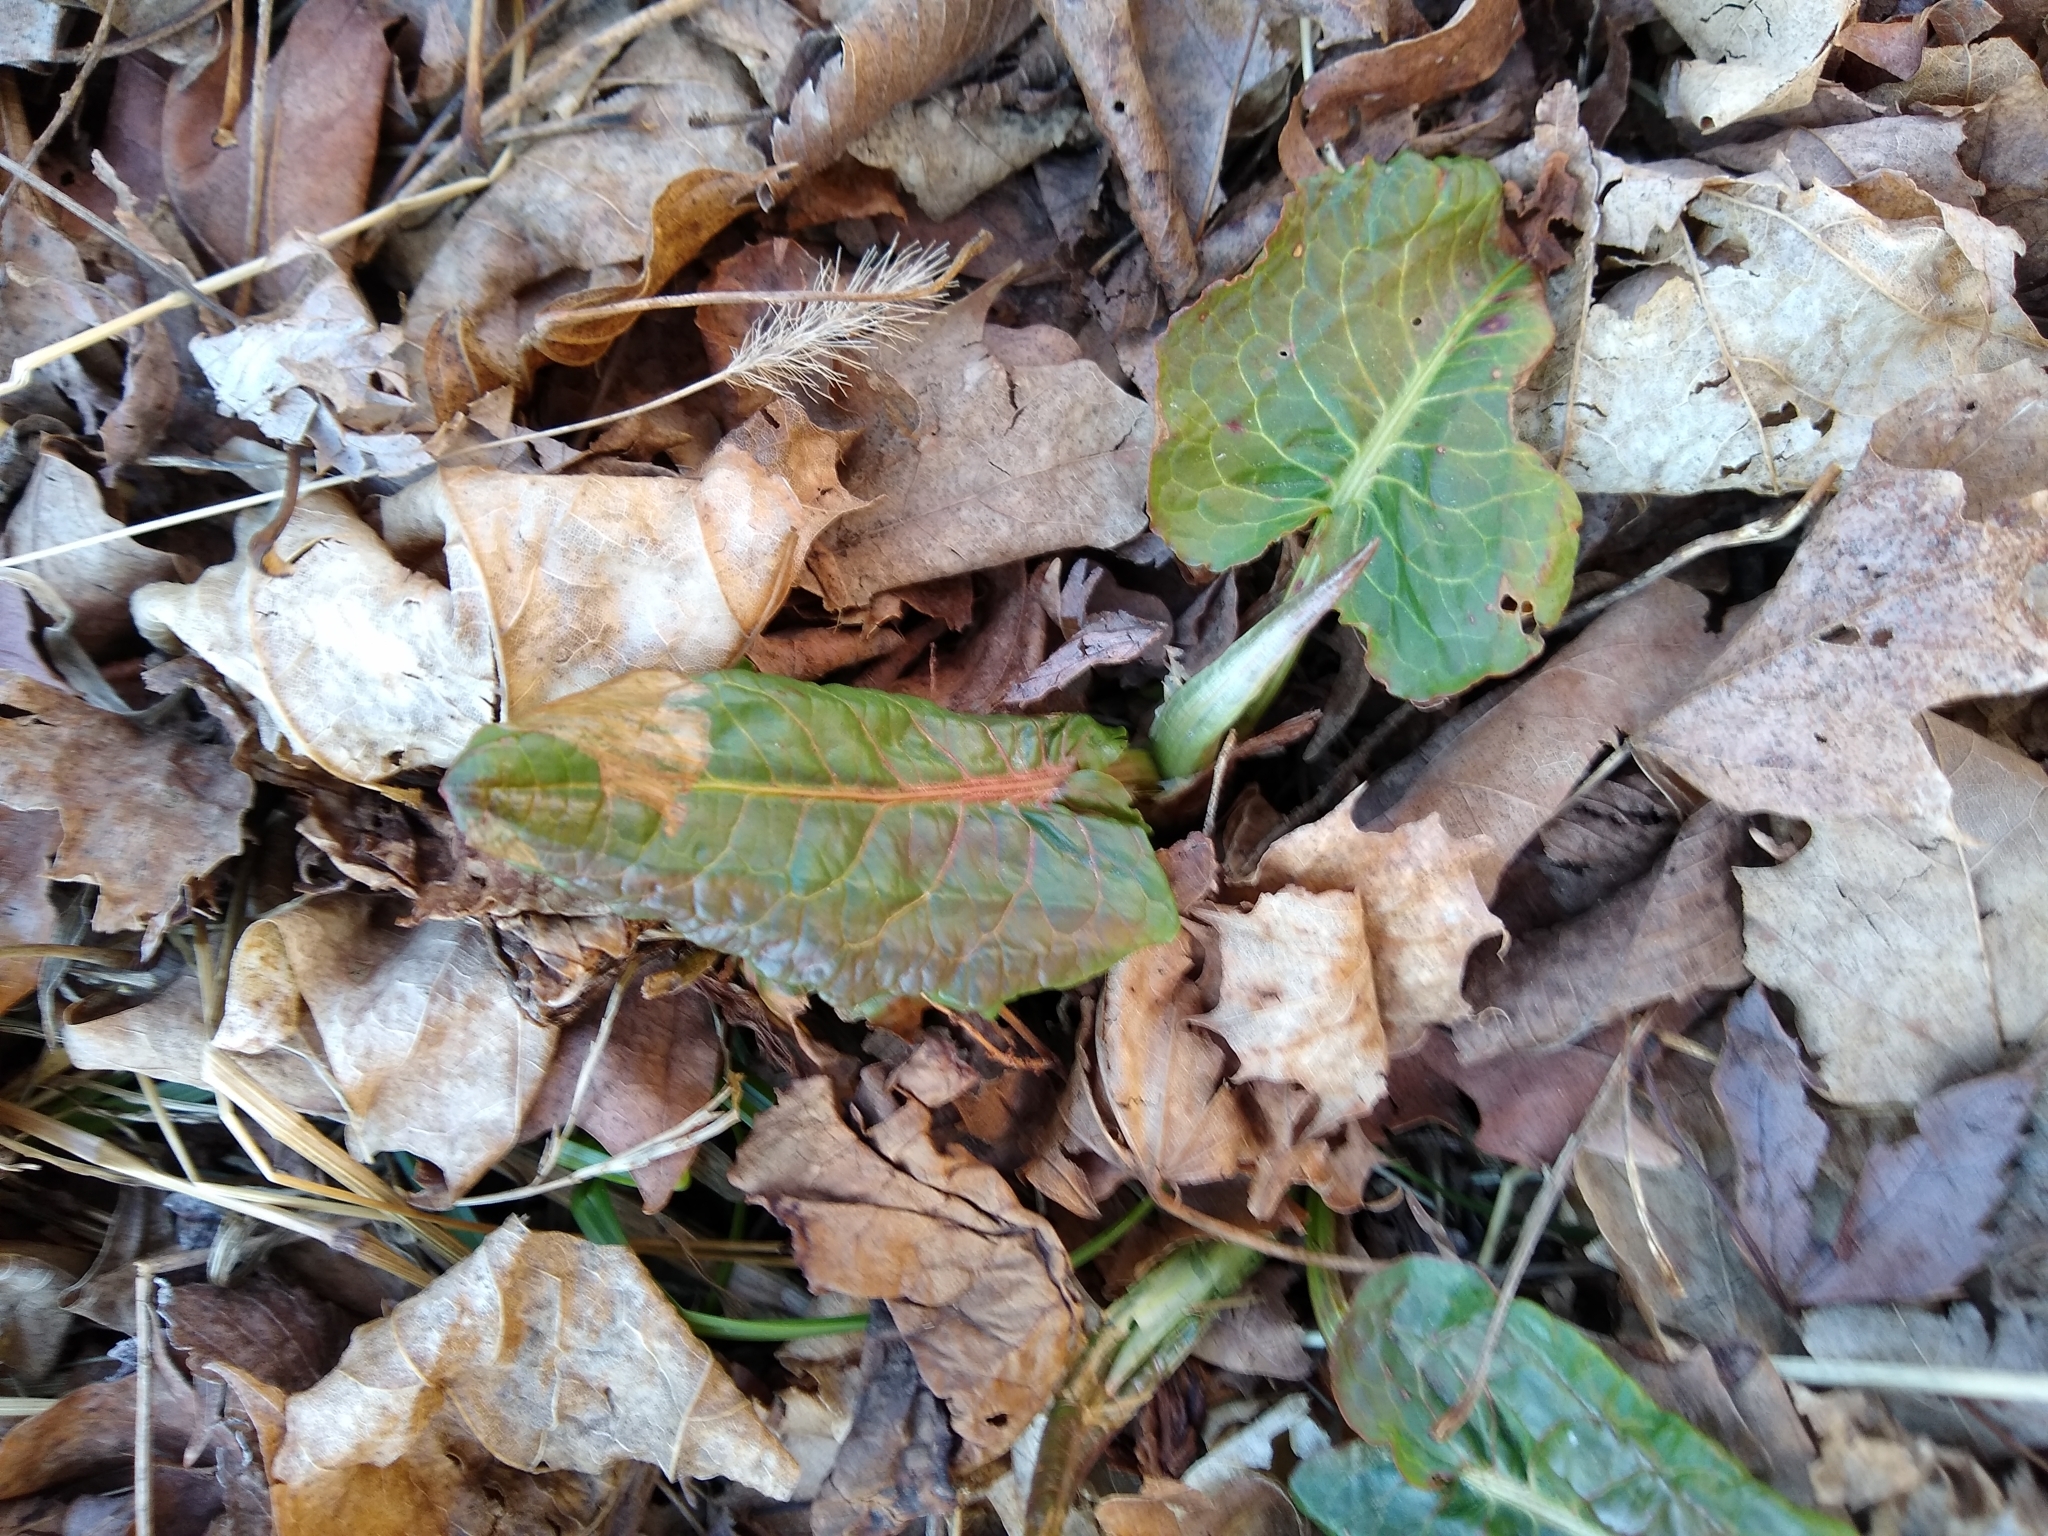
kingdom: Plantae
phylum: Tracheophyta
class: Magnoliopsida
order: Caryophyllales
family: Polygonaceae
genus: Rumex
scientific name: Rumex obtusifolius
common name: Bitter dock
